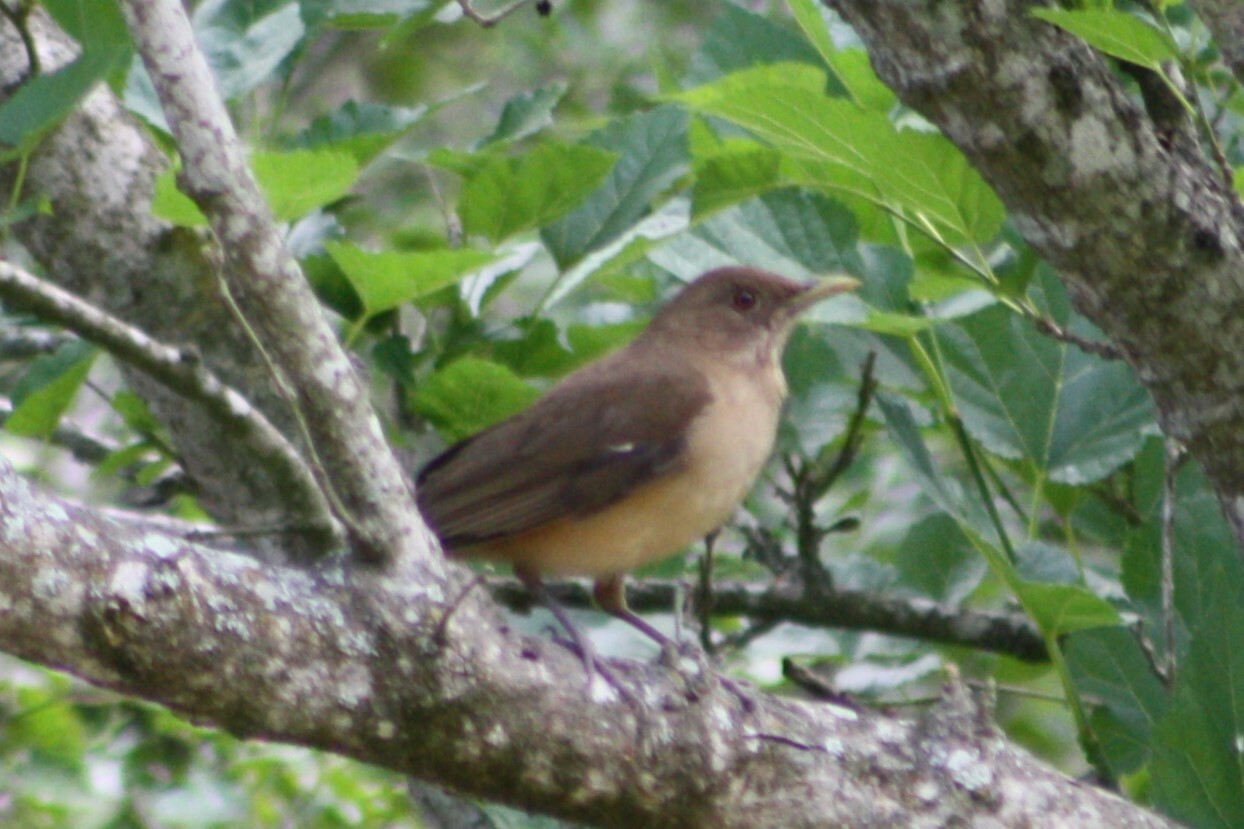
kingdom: Animalia
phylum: Chordata
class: Aves
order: Passeriformes
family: Turdidae
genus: Turdus
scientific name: Turdus grayi
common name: Clay-colored thrush
